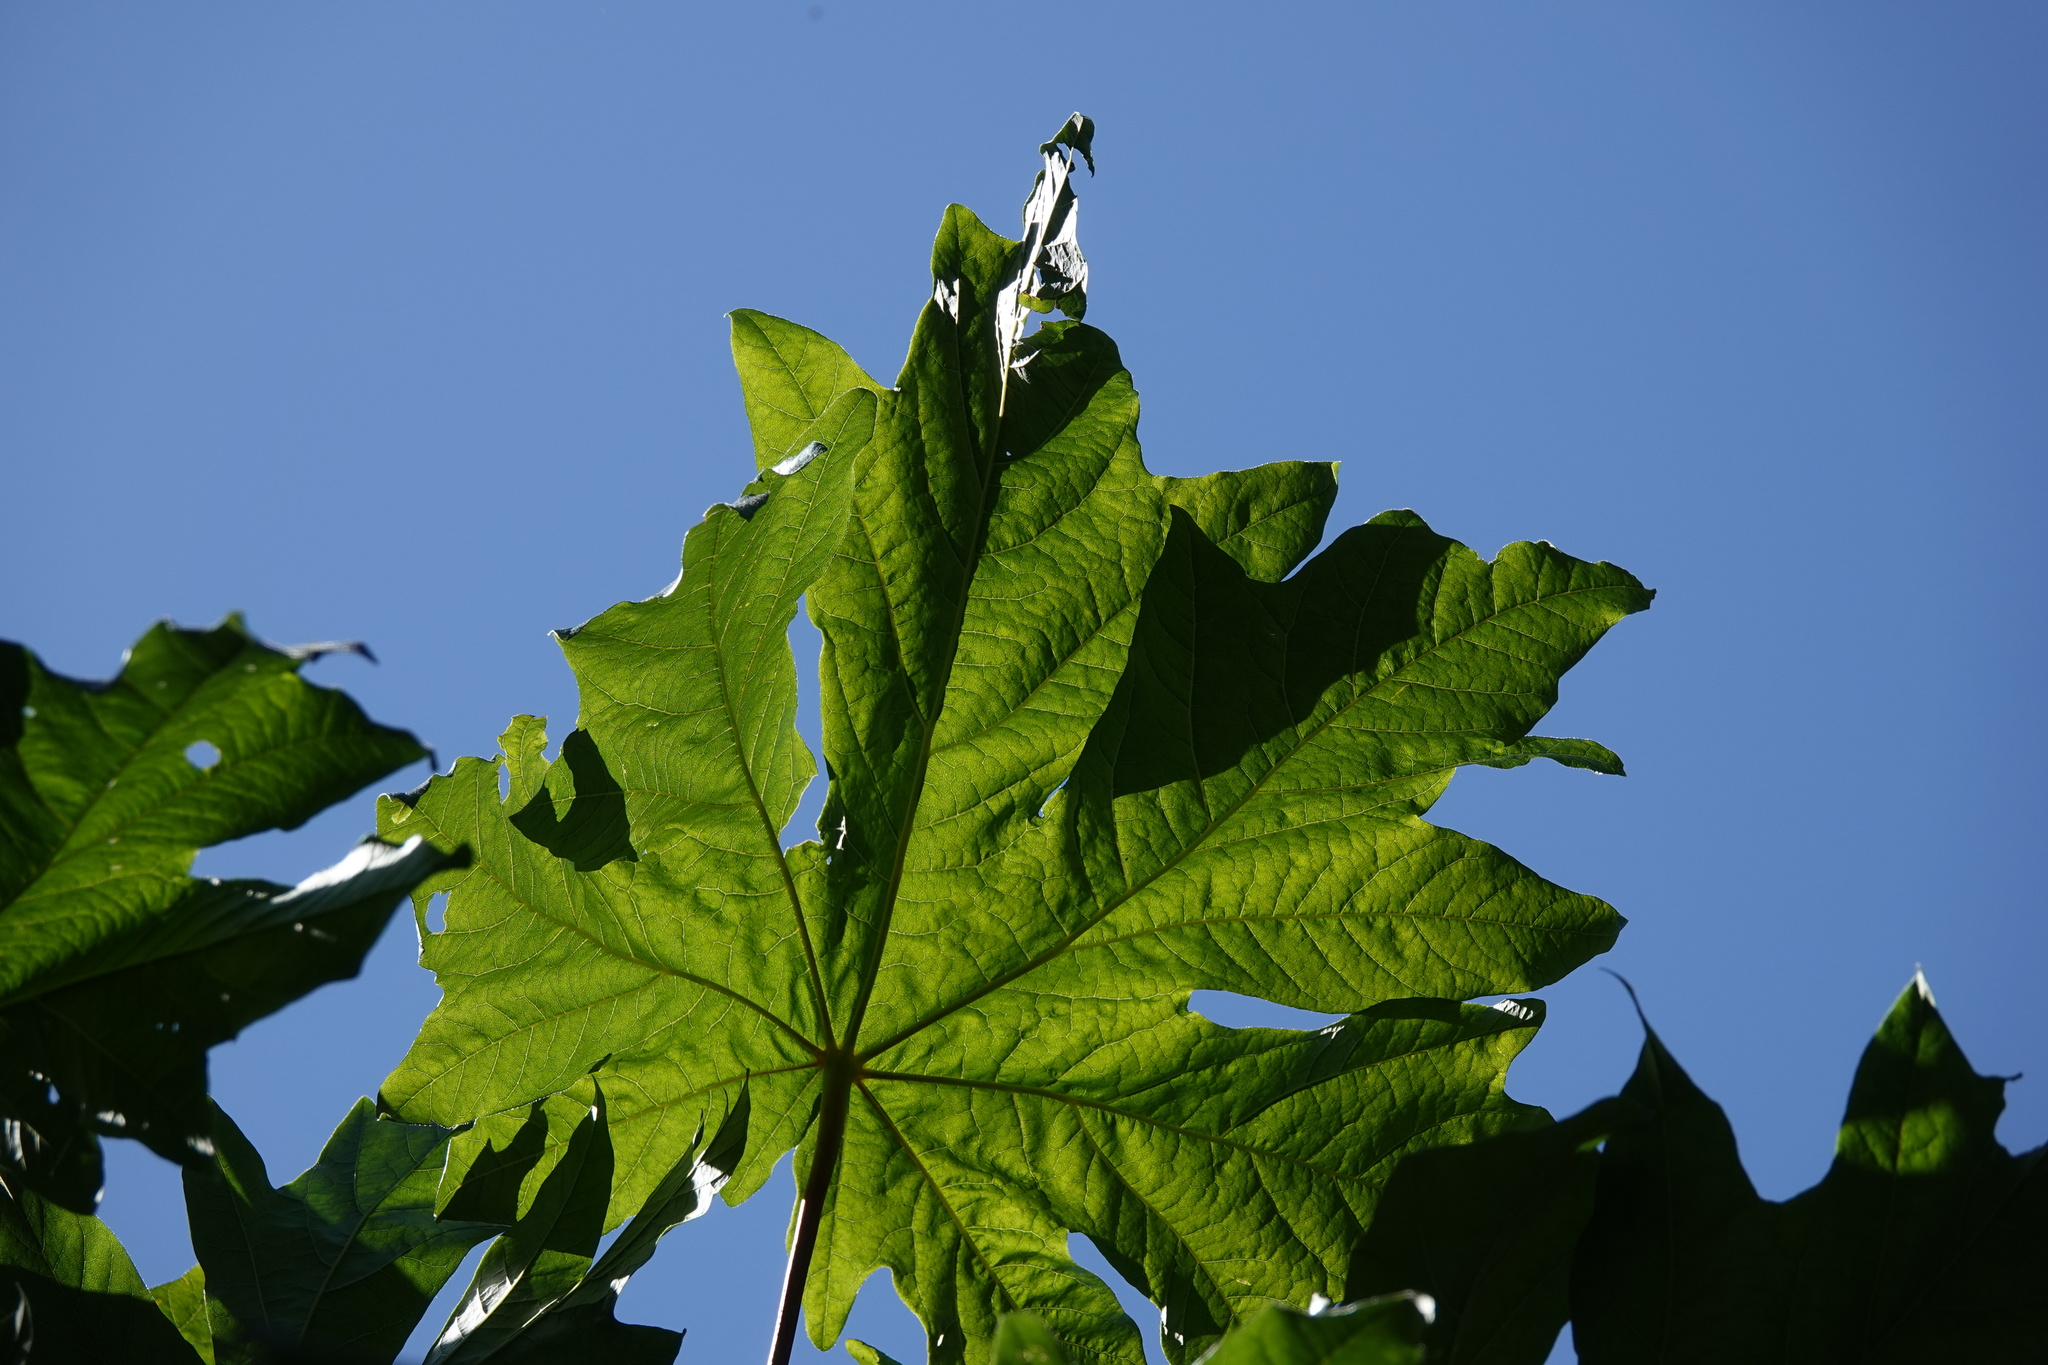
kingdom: Plantae
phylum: Tracheophyta
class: Magnoliopsida
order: Sapindales
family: Sapindaceae
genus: Acer
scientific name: Acer macrophyllum
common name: Oregon maple
